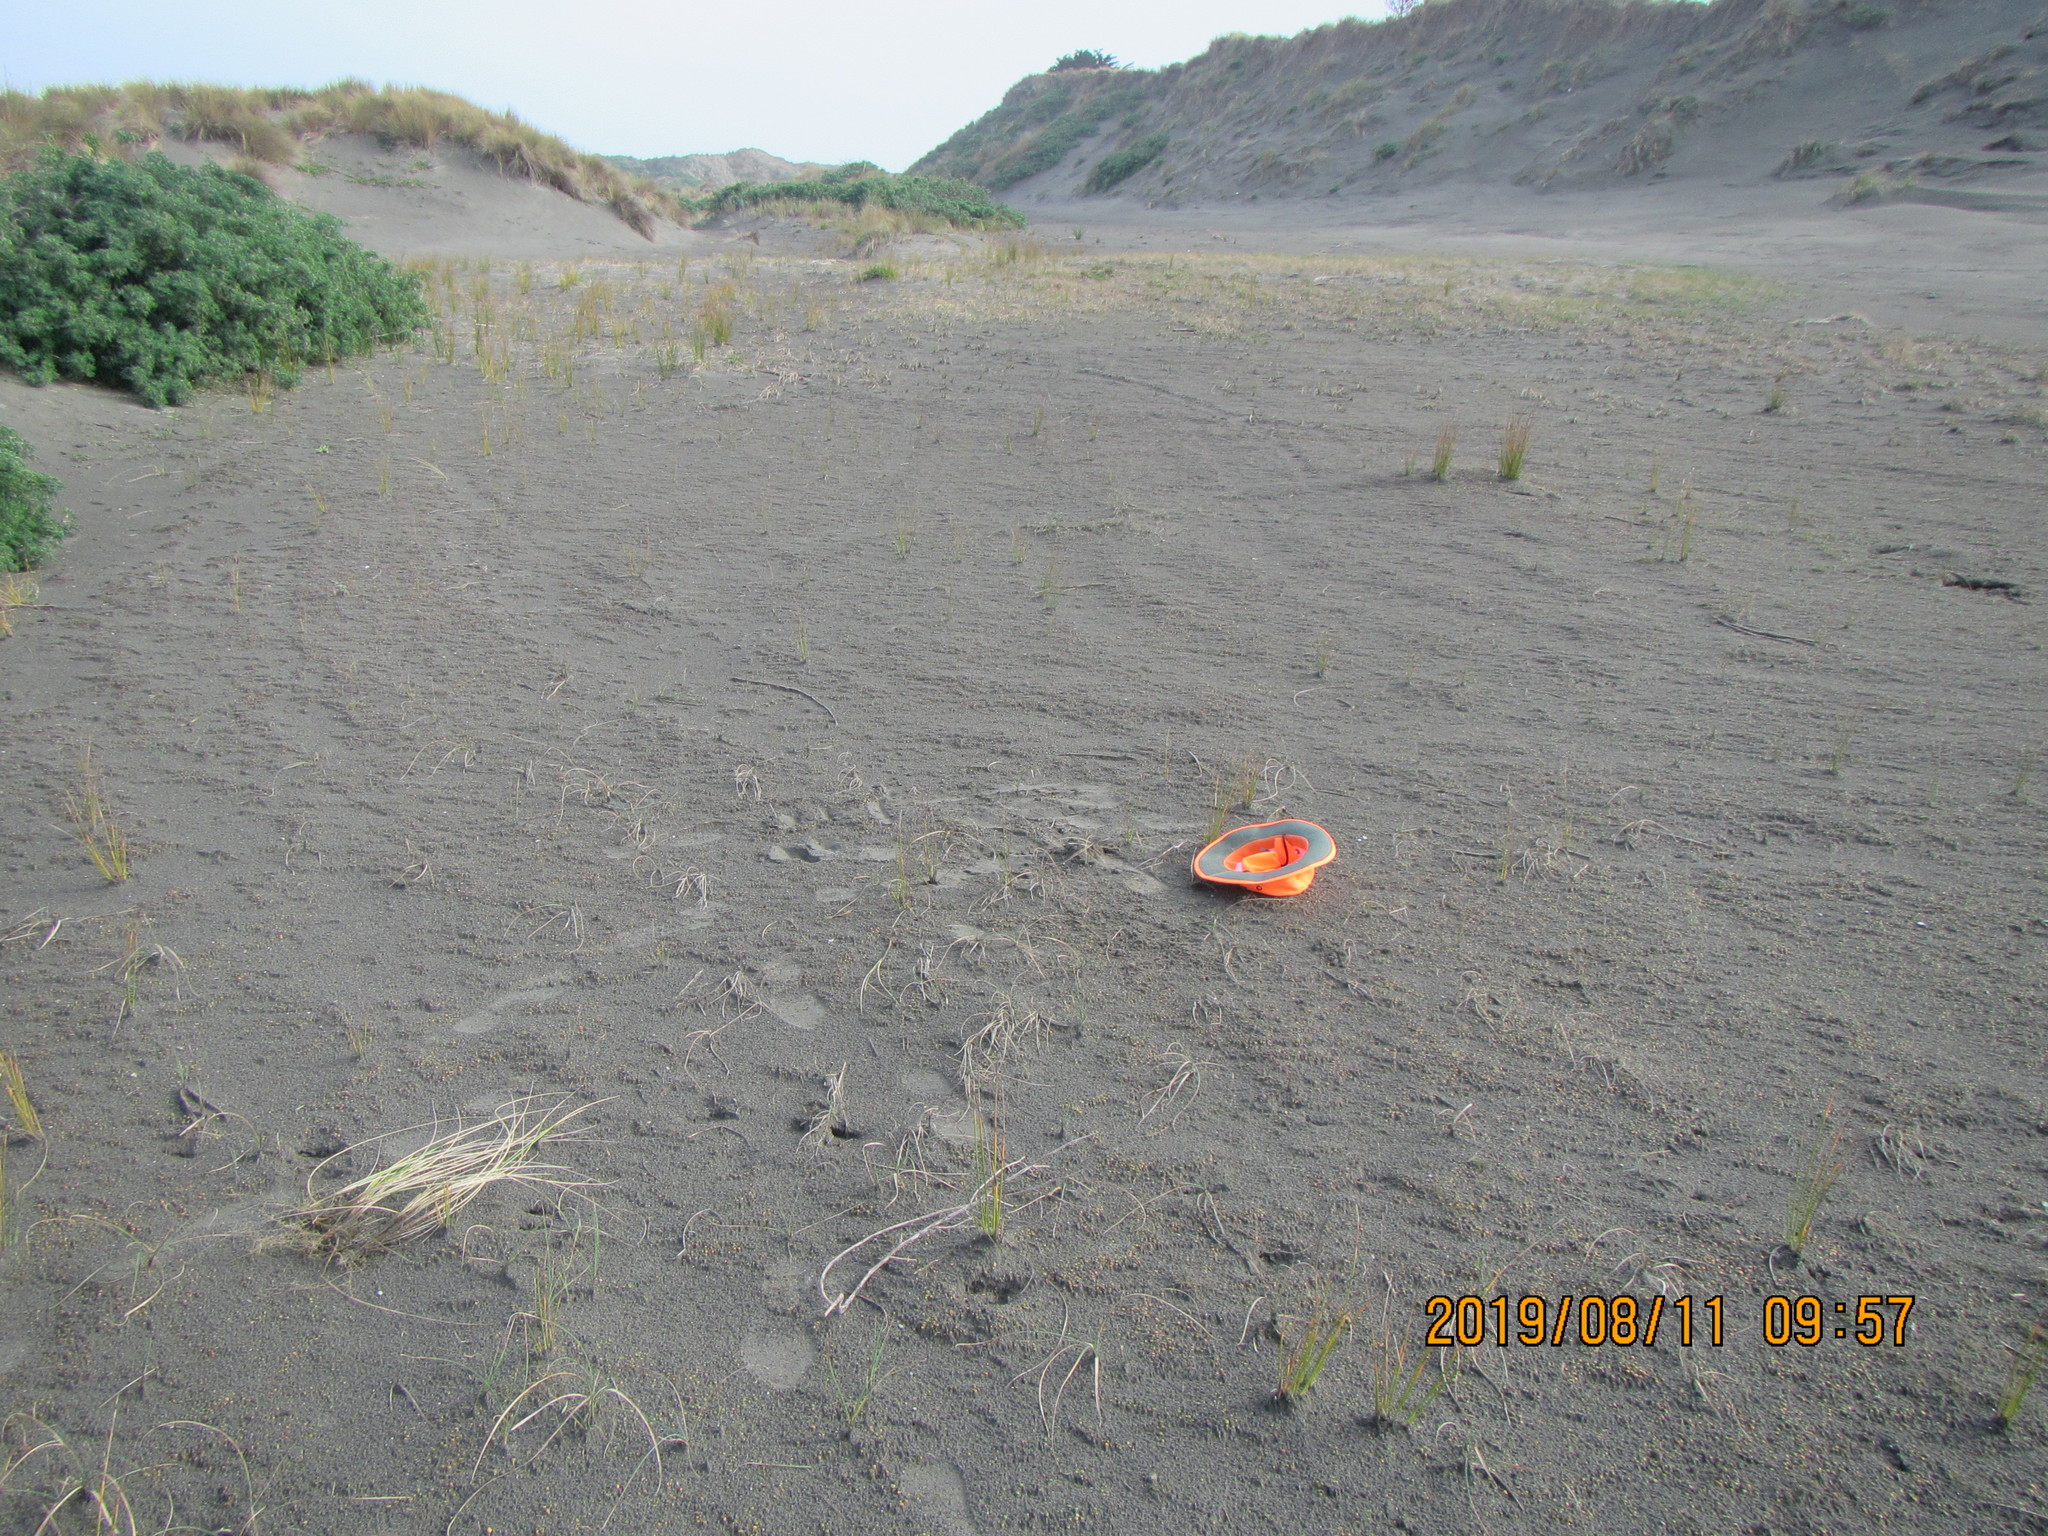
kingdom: Animalia
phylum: Mollusca
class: Gastropoda
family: Epitoniidae
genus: Janthina
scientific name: Janthina exigua
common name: Dwarf janthina
